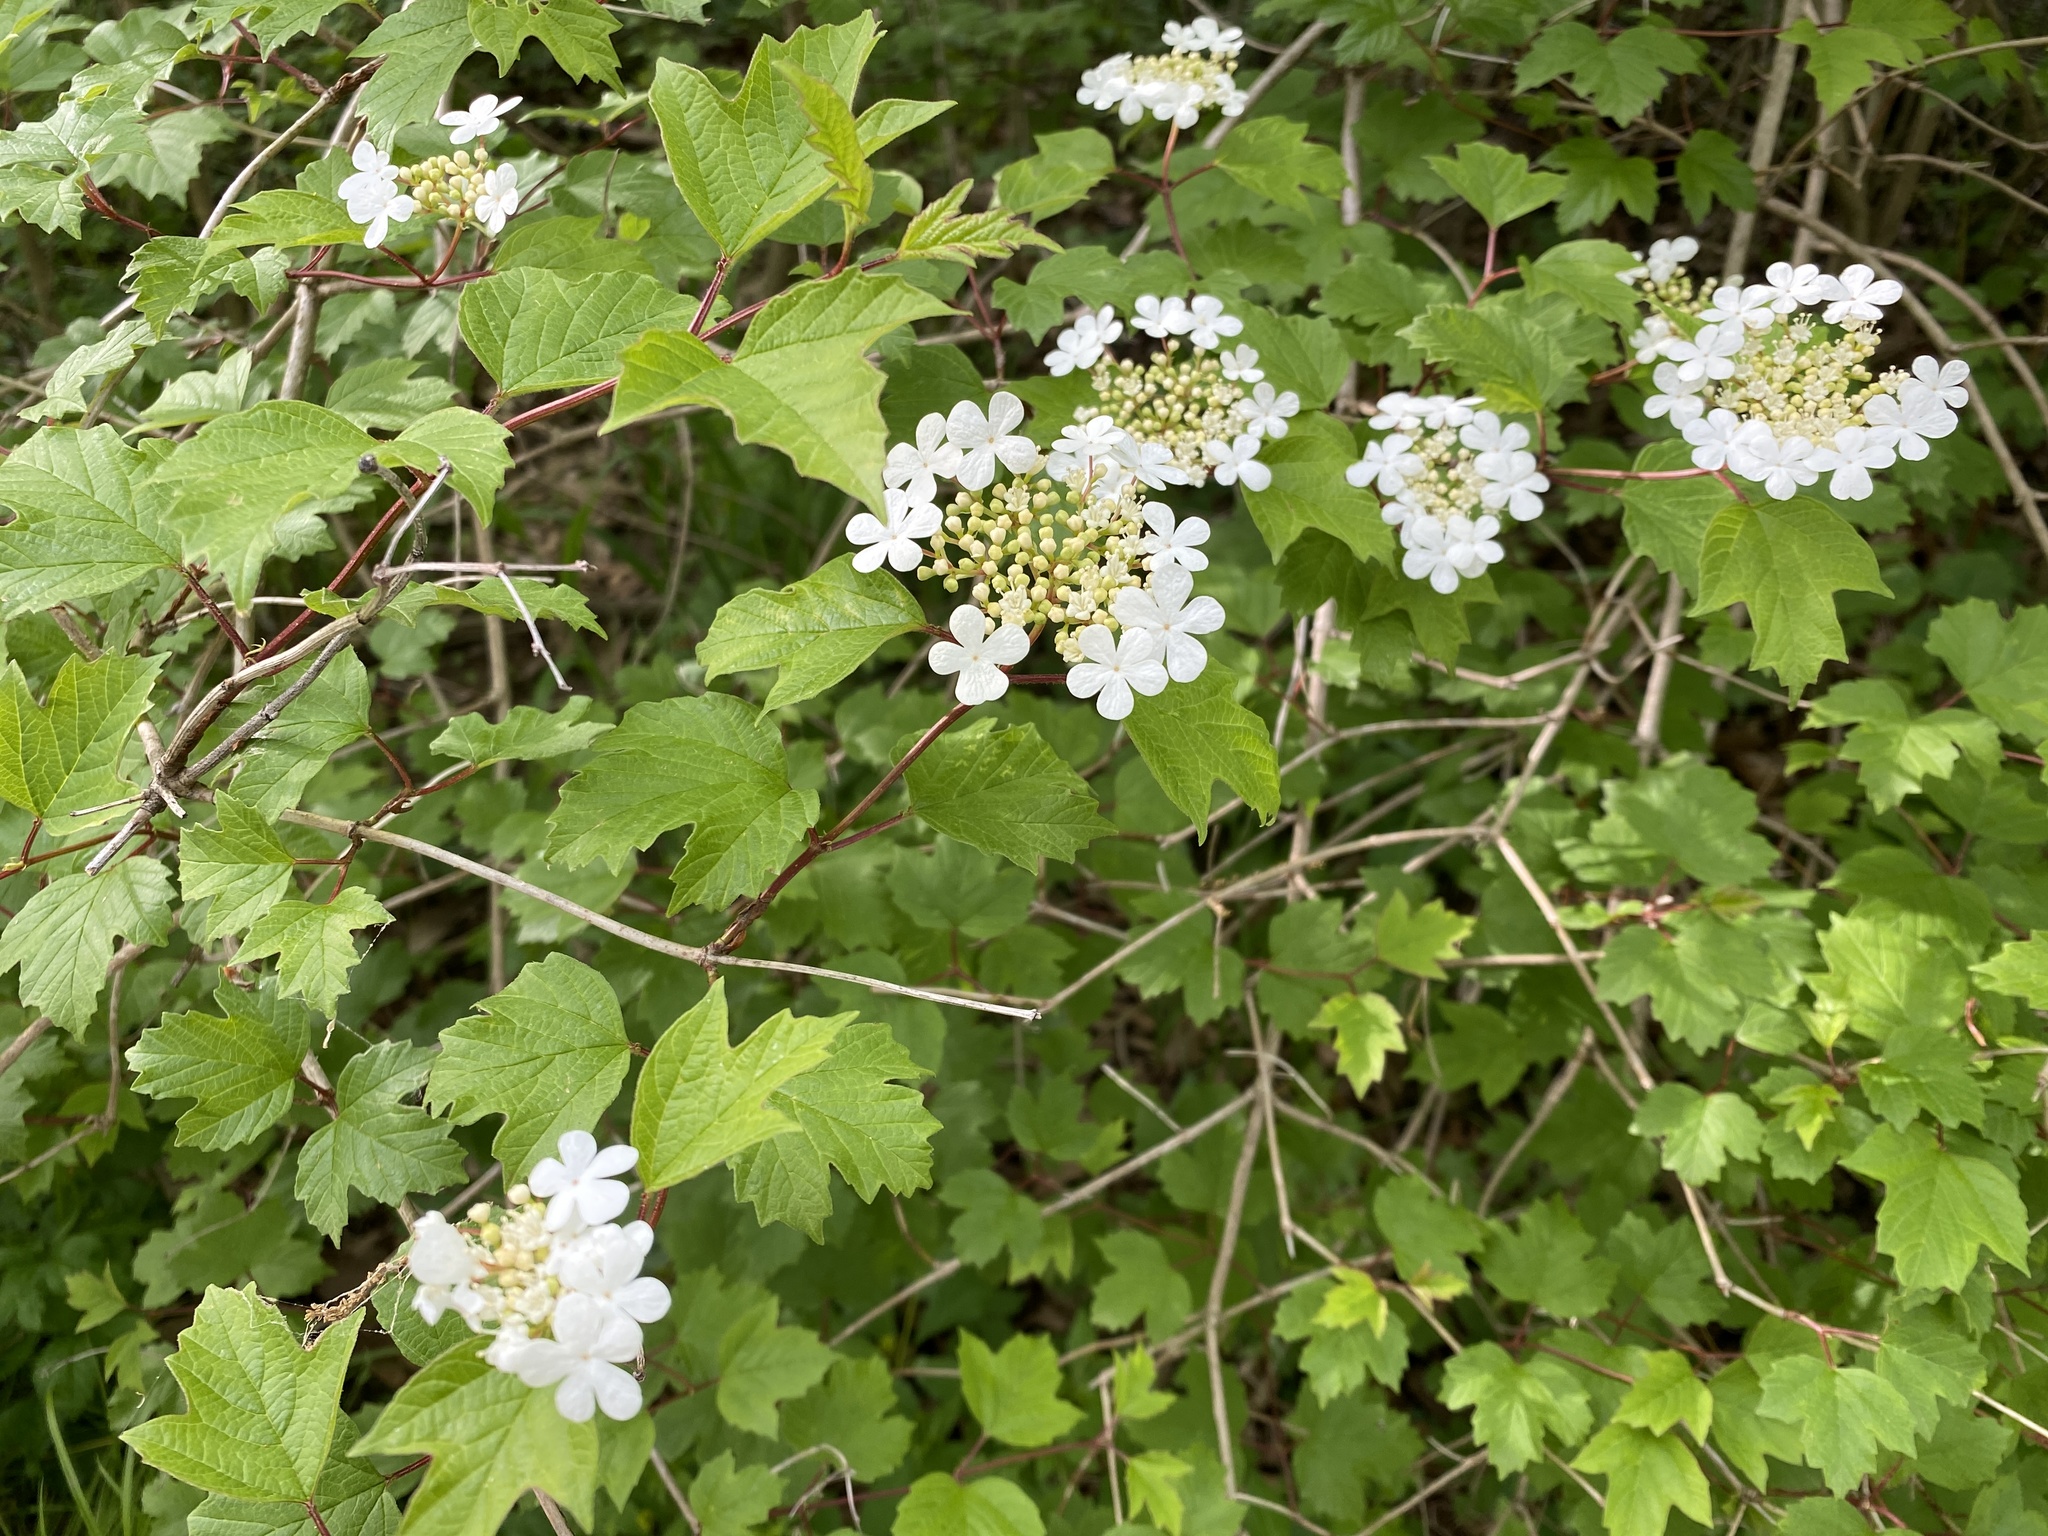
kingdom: Plantae
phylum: Tracheophyta
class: Magnoliopsida
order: Dipsacales
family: Viburnaceae
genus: Viburnum
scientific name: Viburnum opulus
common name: Guelder-rose
